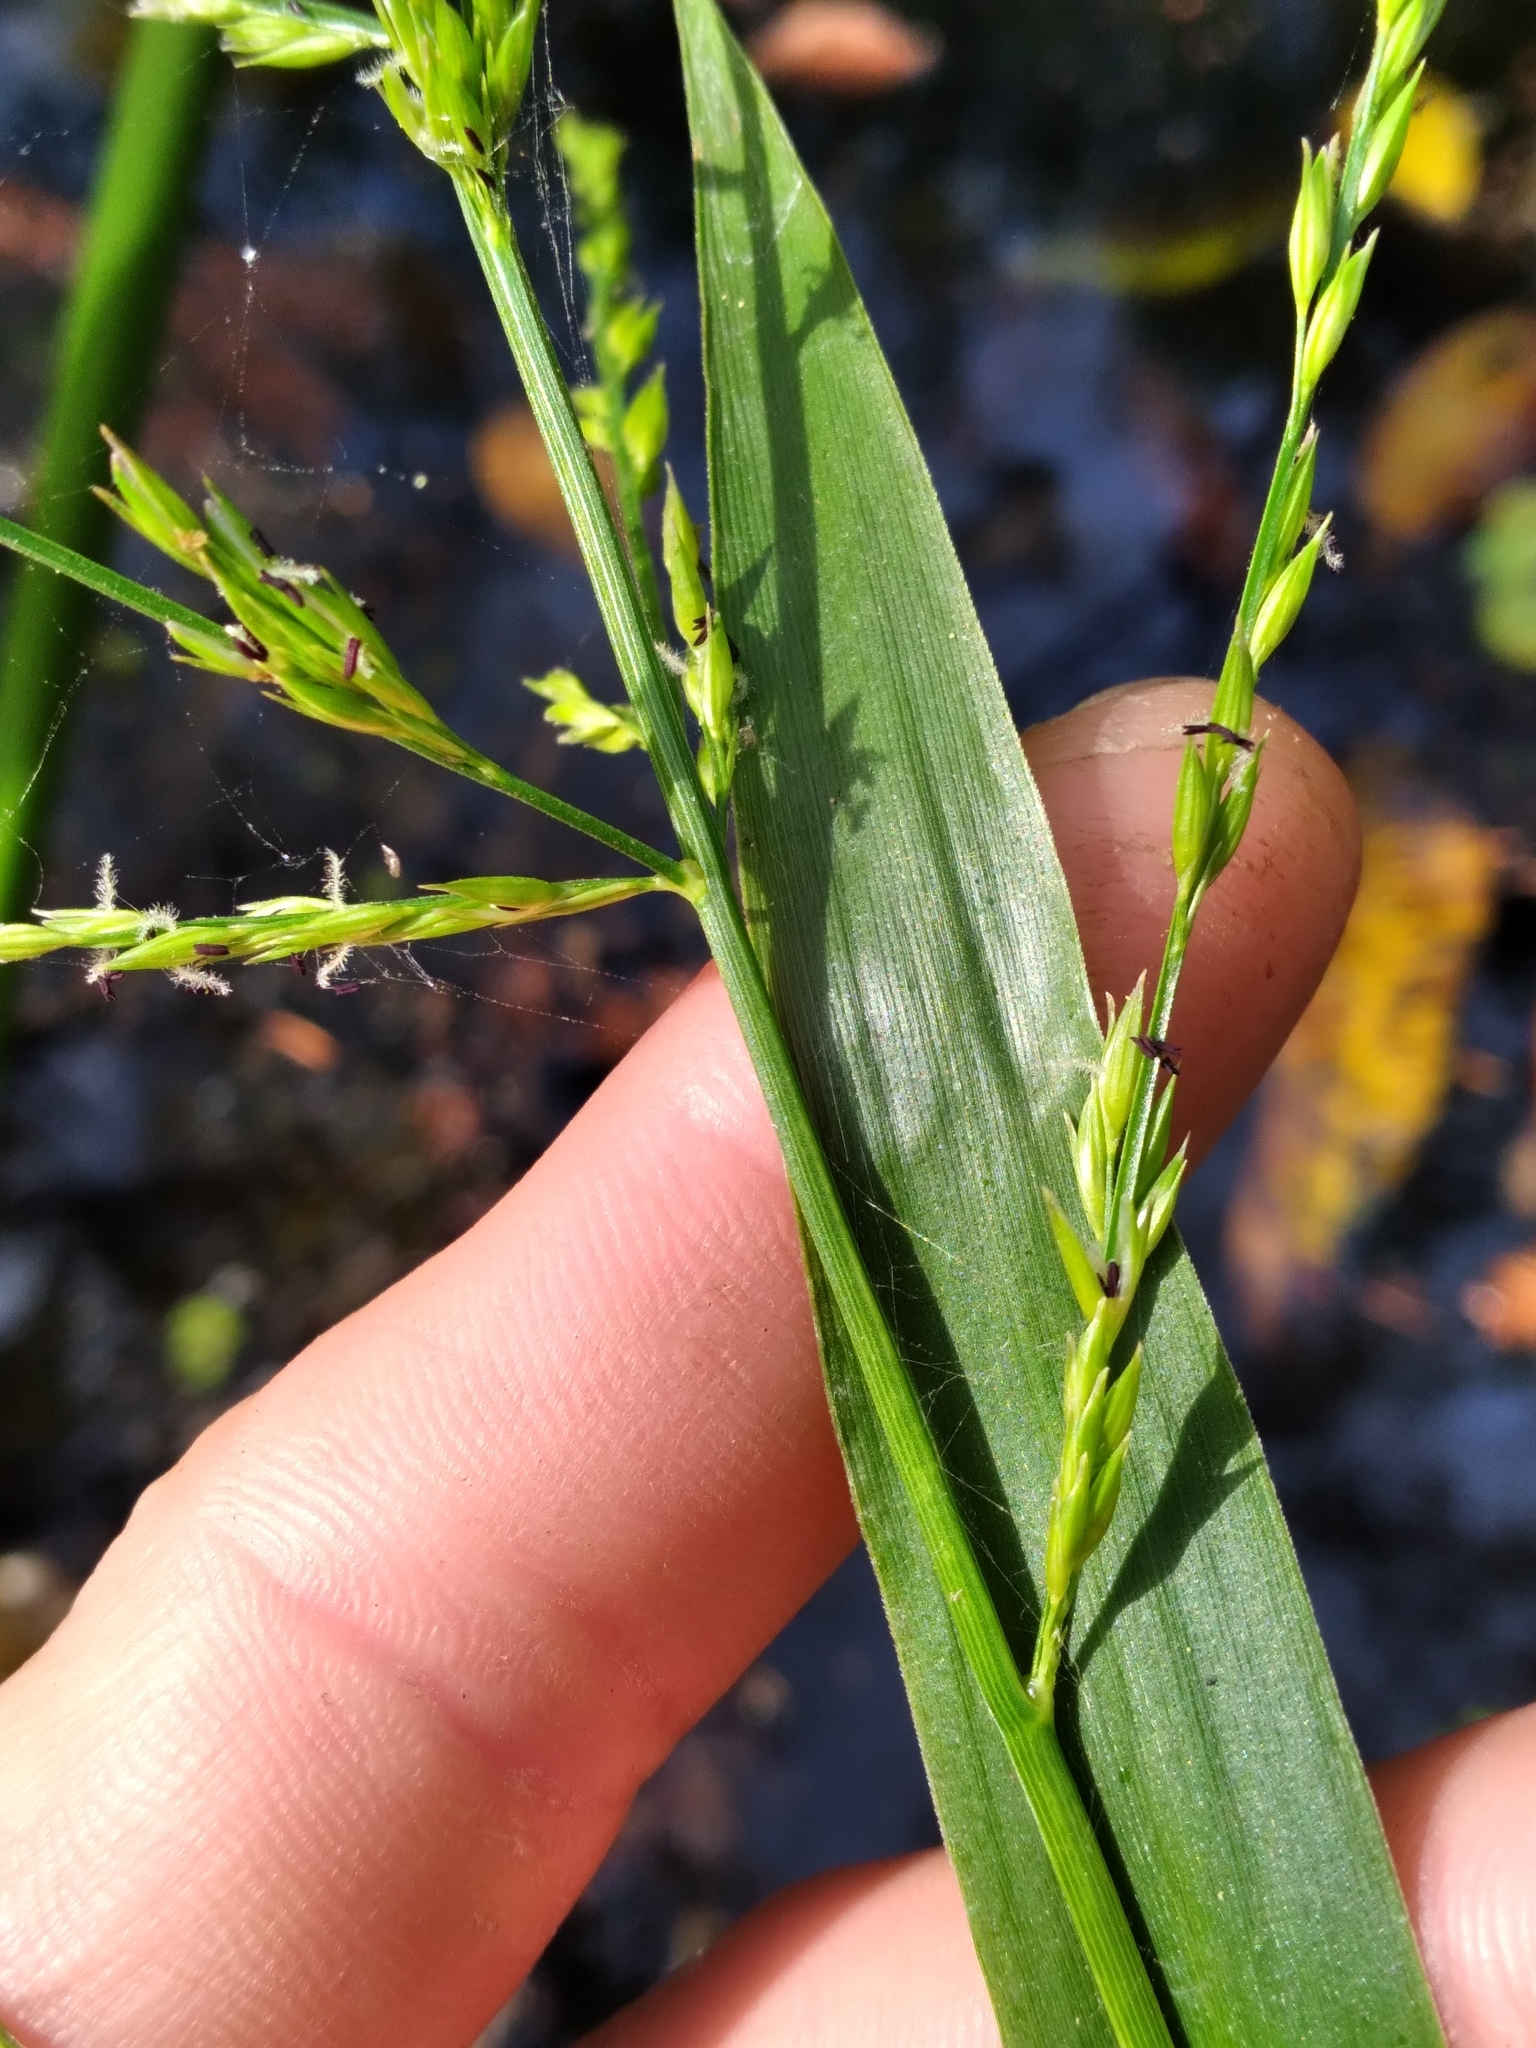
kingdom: Plantae
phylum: Tracheophyta
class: Liliopsida
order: Poales
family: Poaceae
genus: Panicum
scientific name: Panicum gymnocarpon
